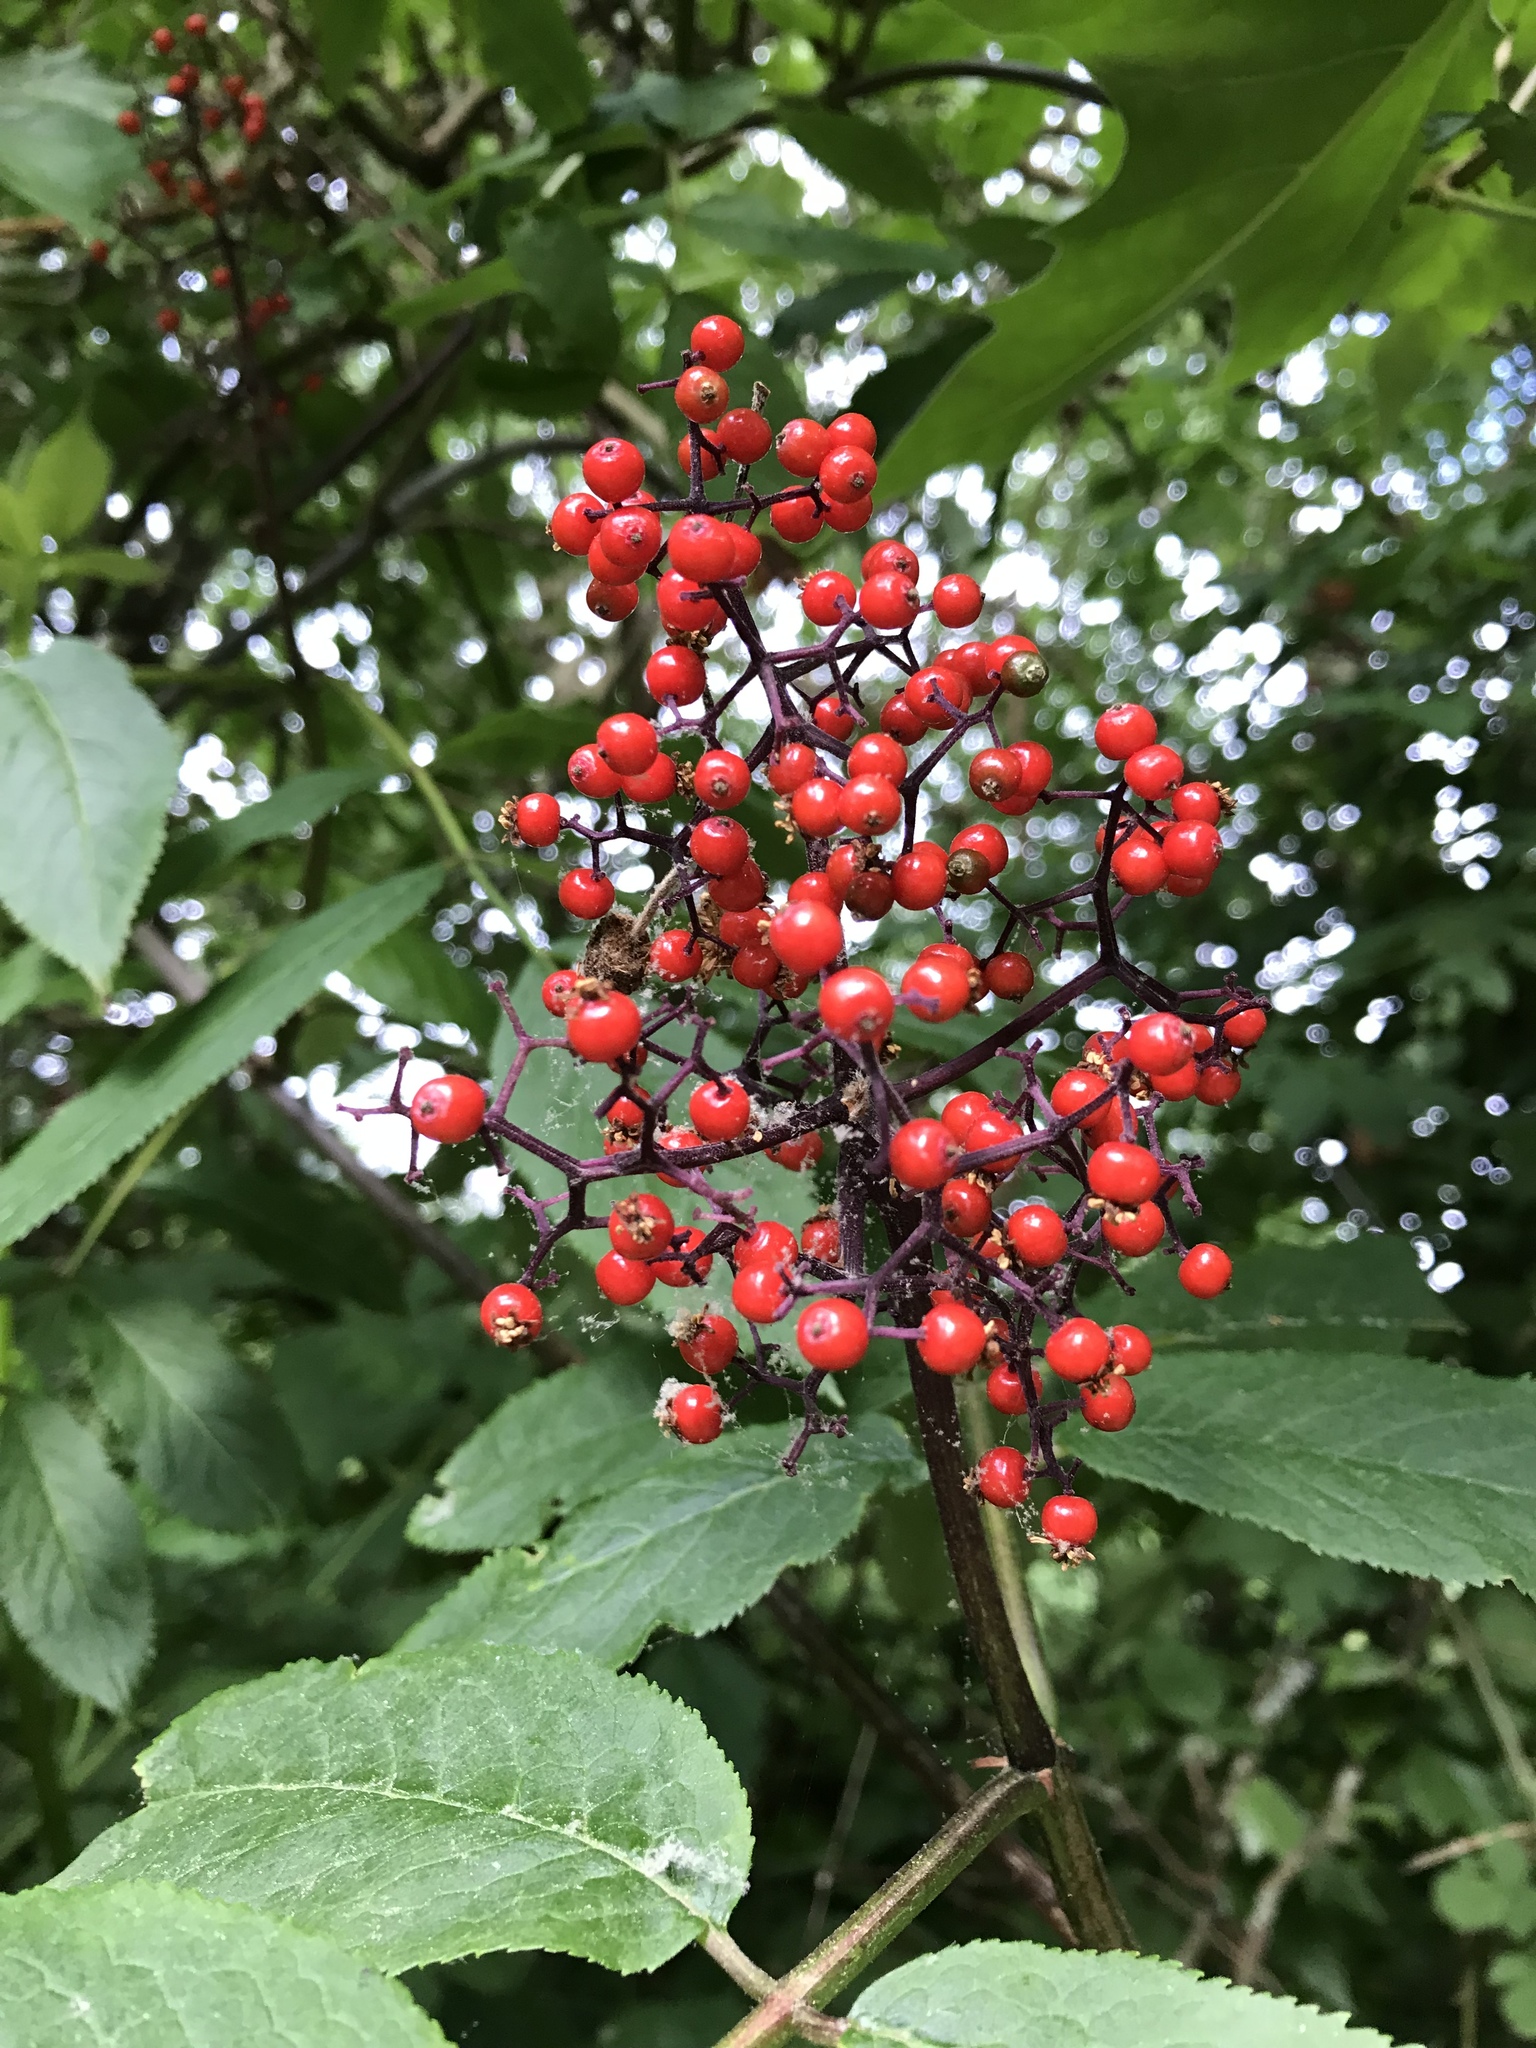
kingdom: Plantae
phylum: Tracheophyta
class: Magnoliopsida
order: Dipsacales
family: Viburnaceae
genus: Sambucus
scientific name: Sambucus racemosa
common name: Red-berried elder
